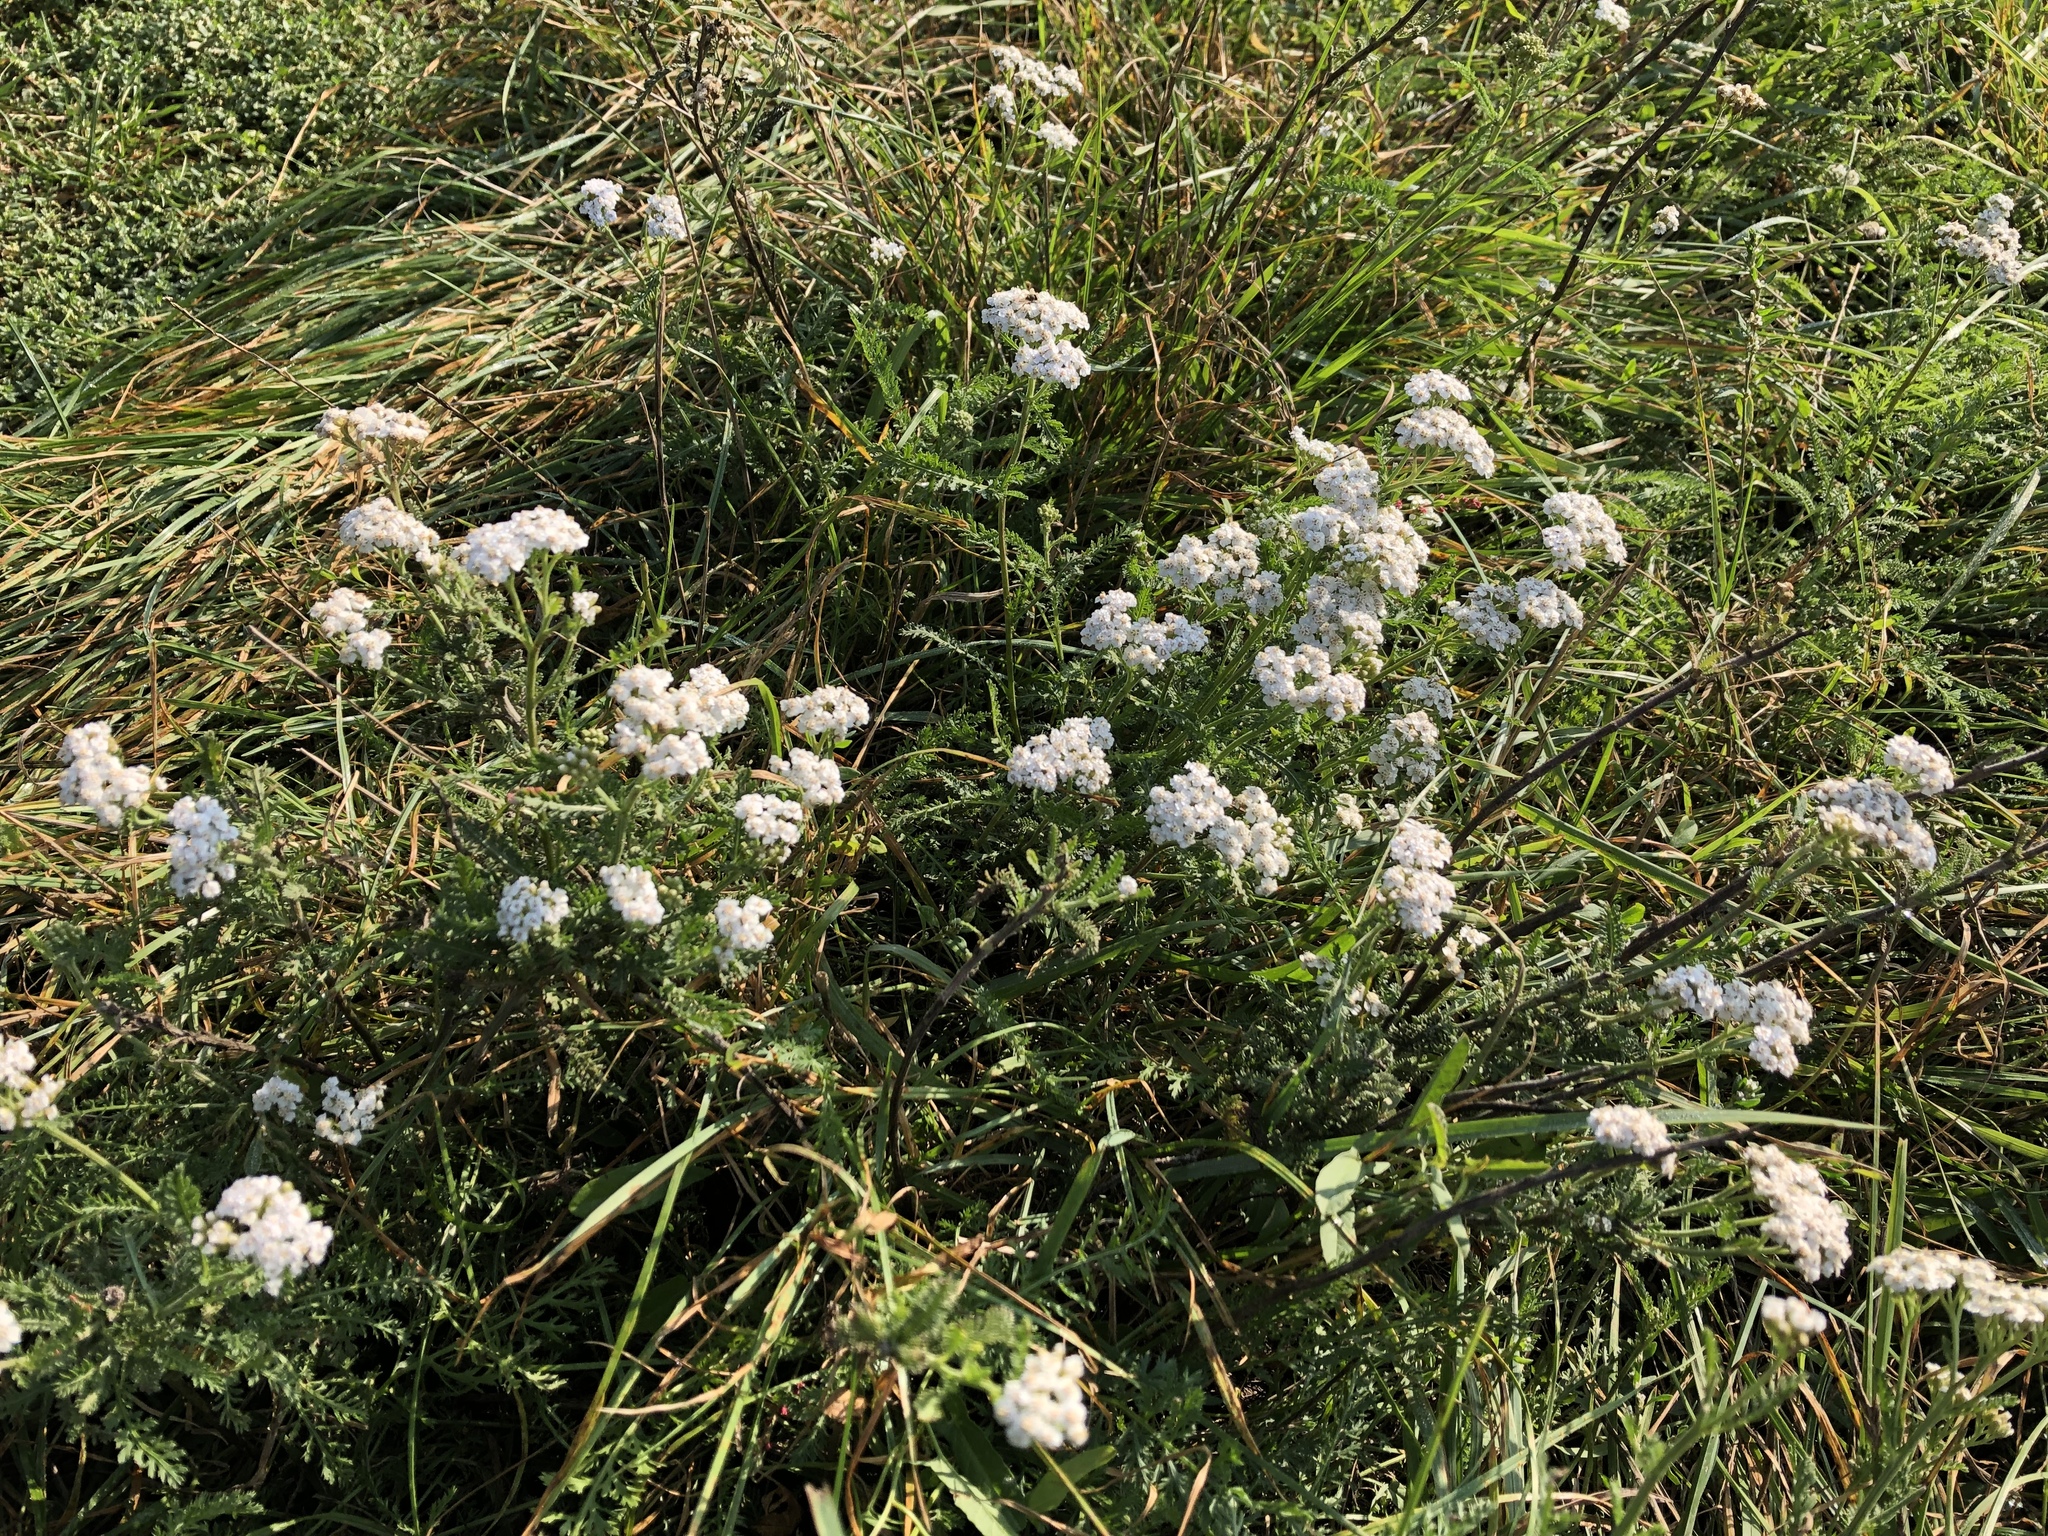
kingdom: Plantae
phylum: Tracheophyta
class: Magnoliopsida
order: Asterales
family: Asteraceae
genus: Achillea
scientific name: Achillea millefolium
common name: Yarrow
